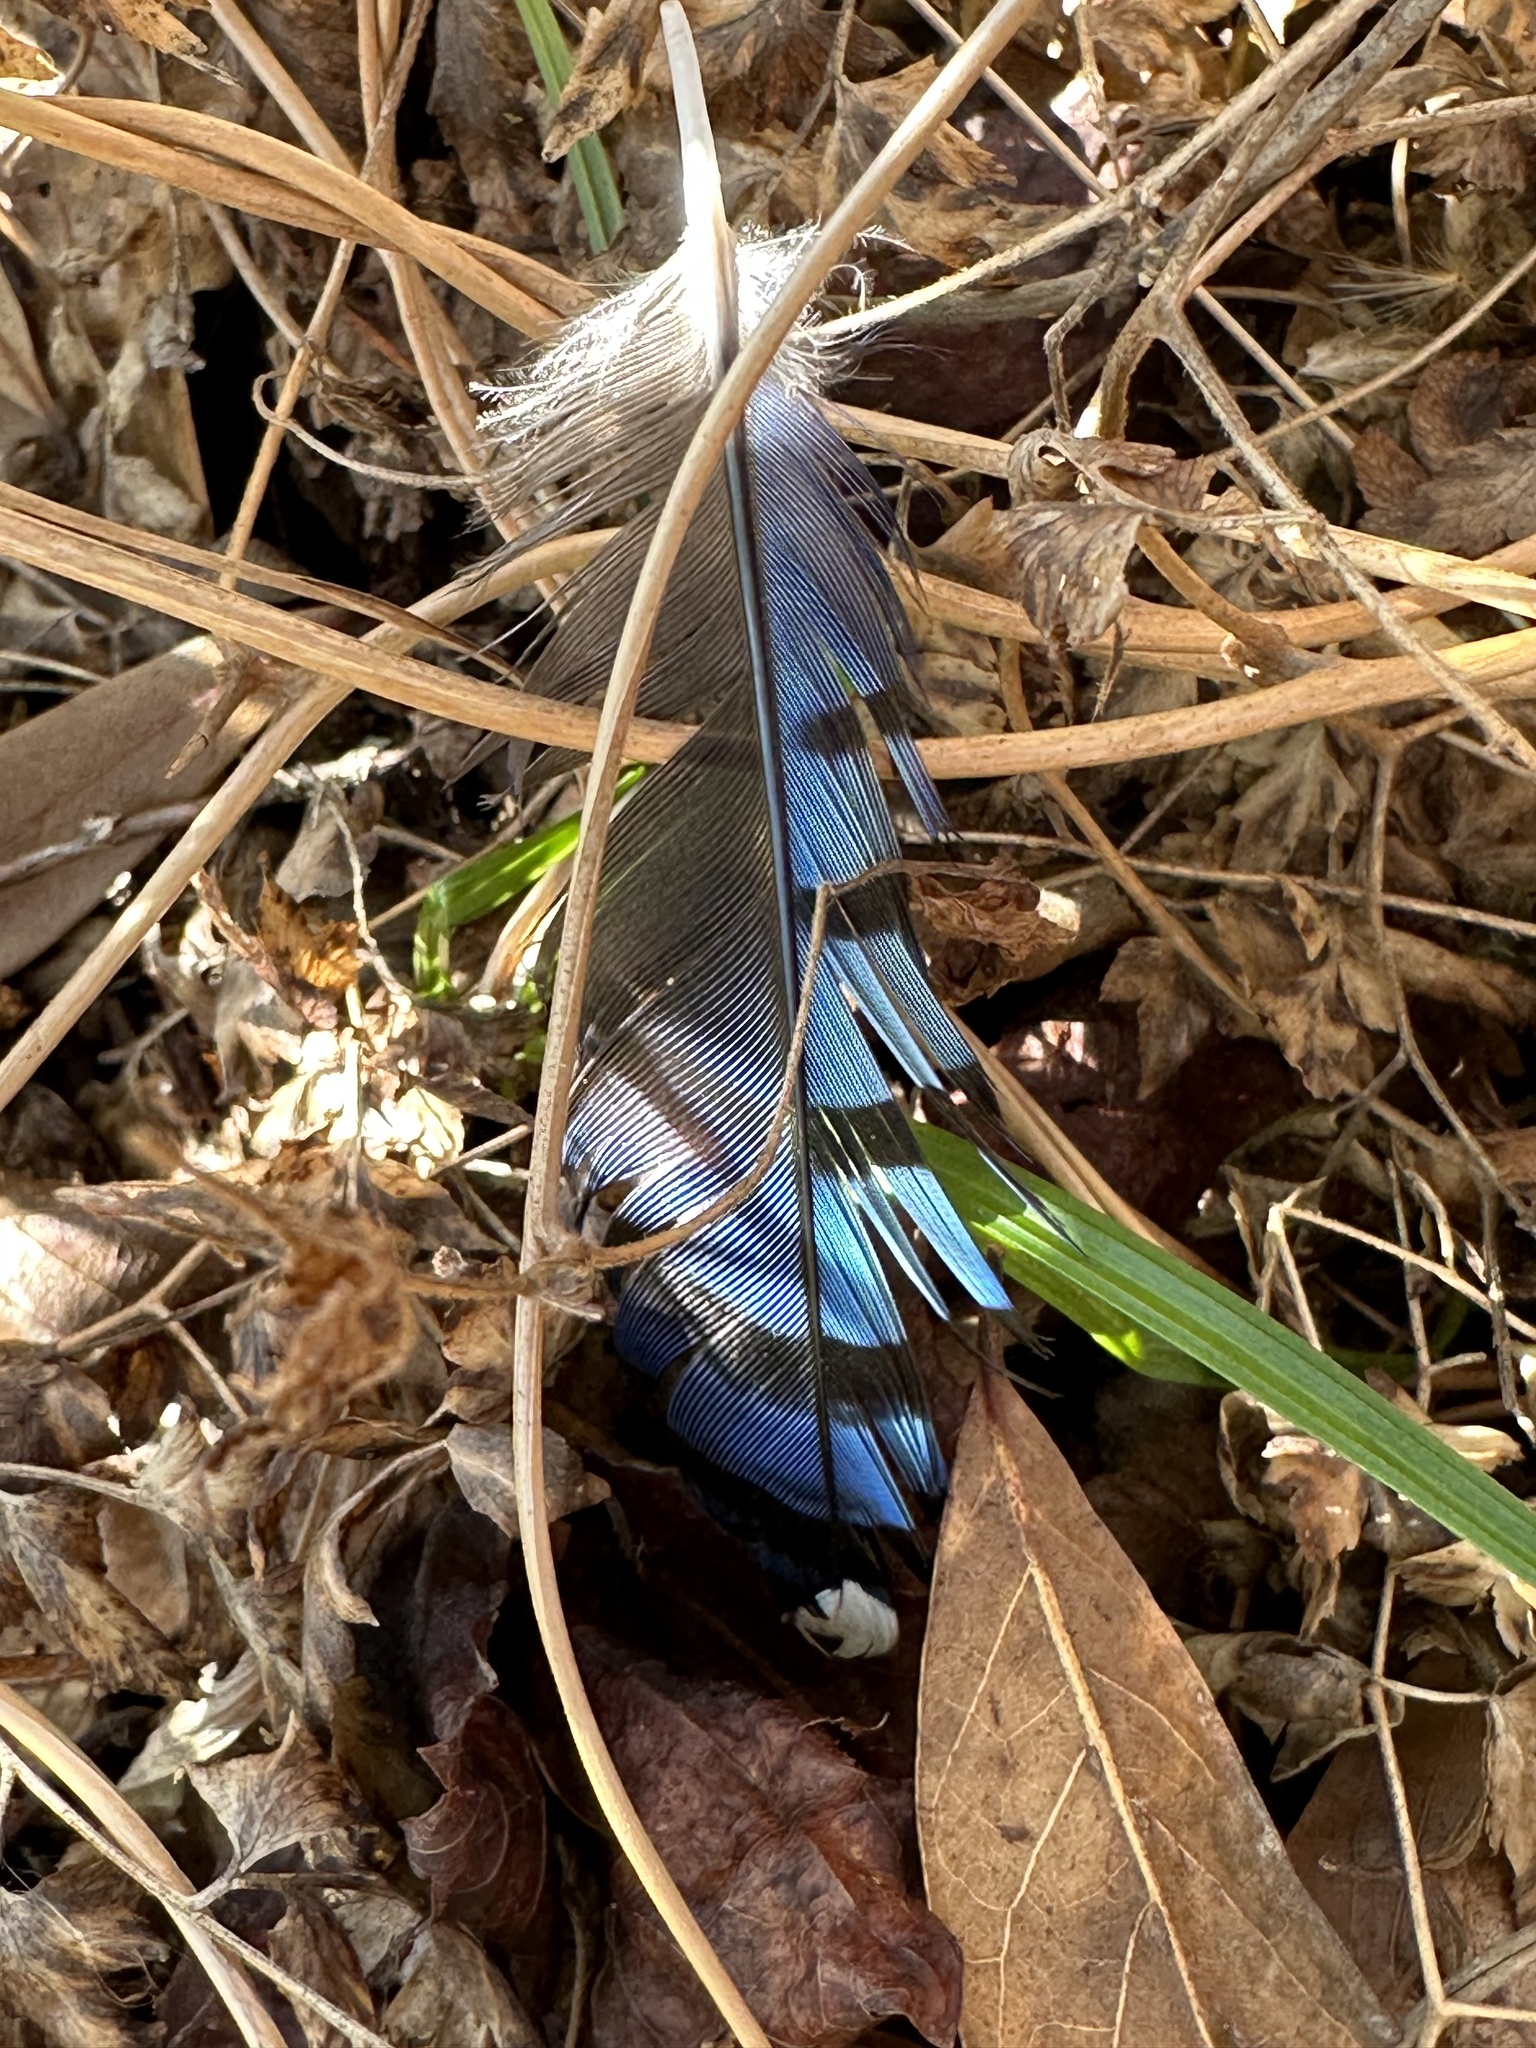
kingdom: Animalia
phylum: Chordata
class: Aves
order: Passeriformes
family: Corvidae
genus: Cyanocitta
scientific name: Cyanocitta cristata
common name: Blue jay
